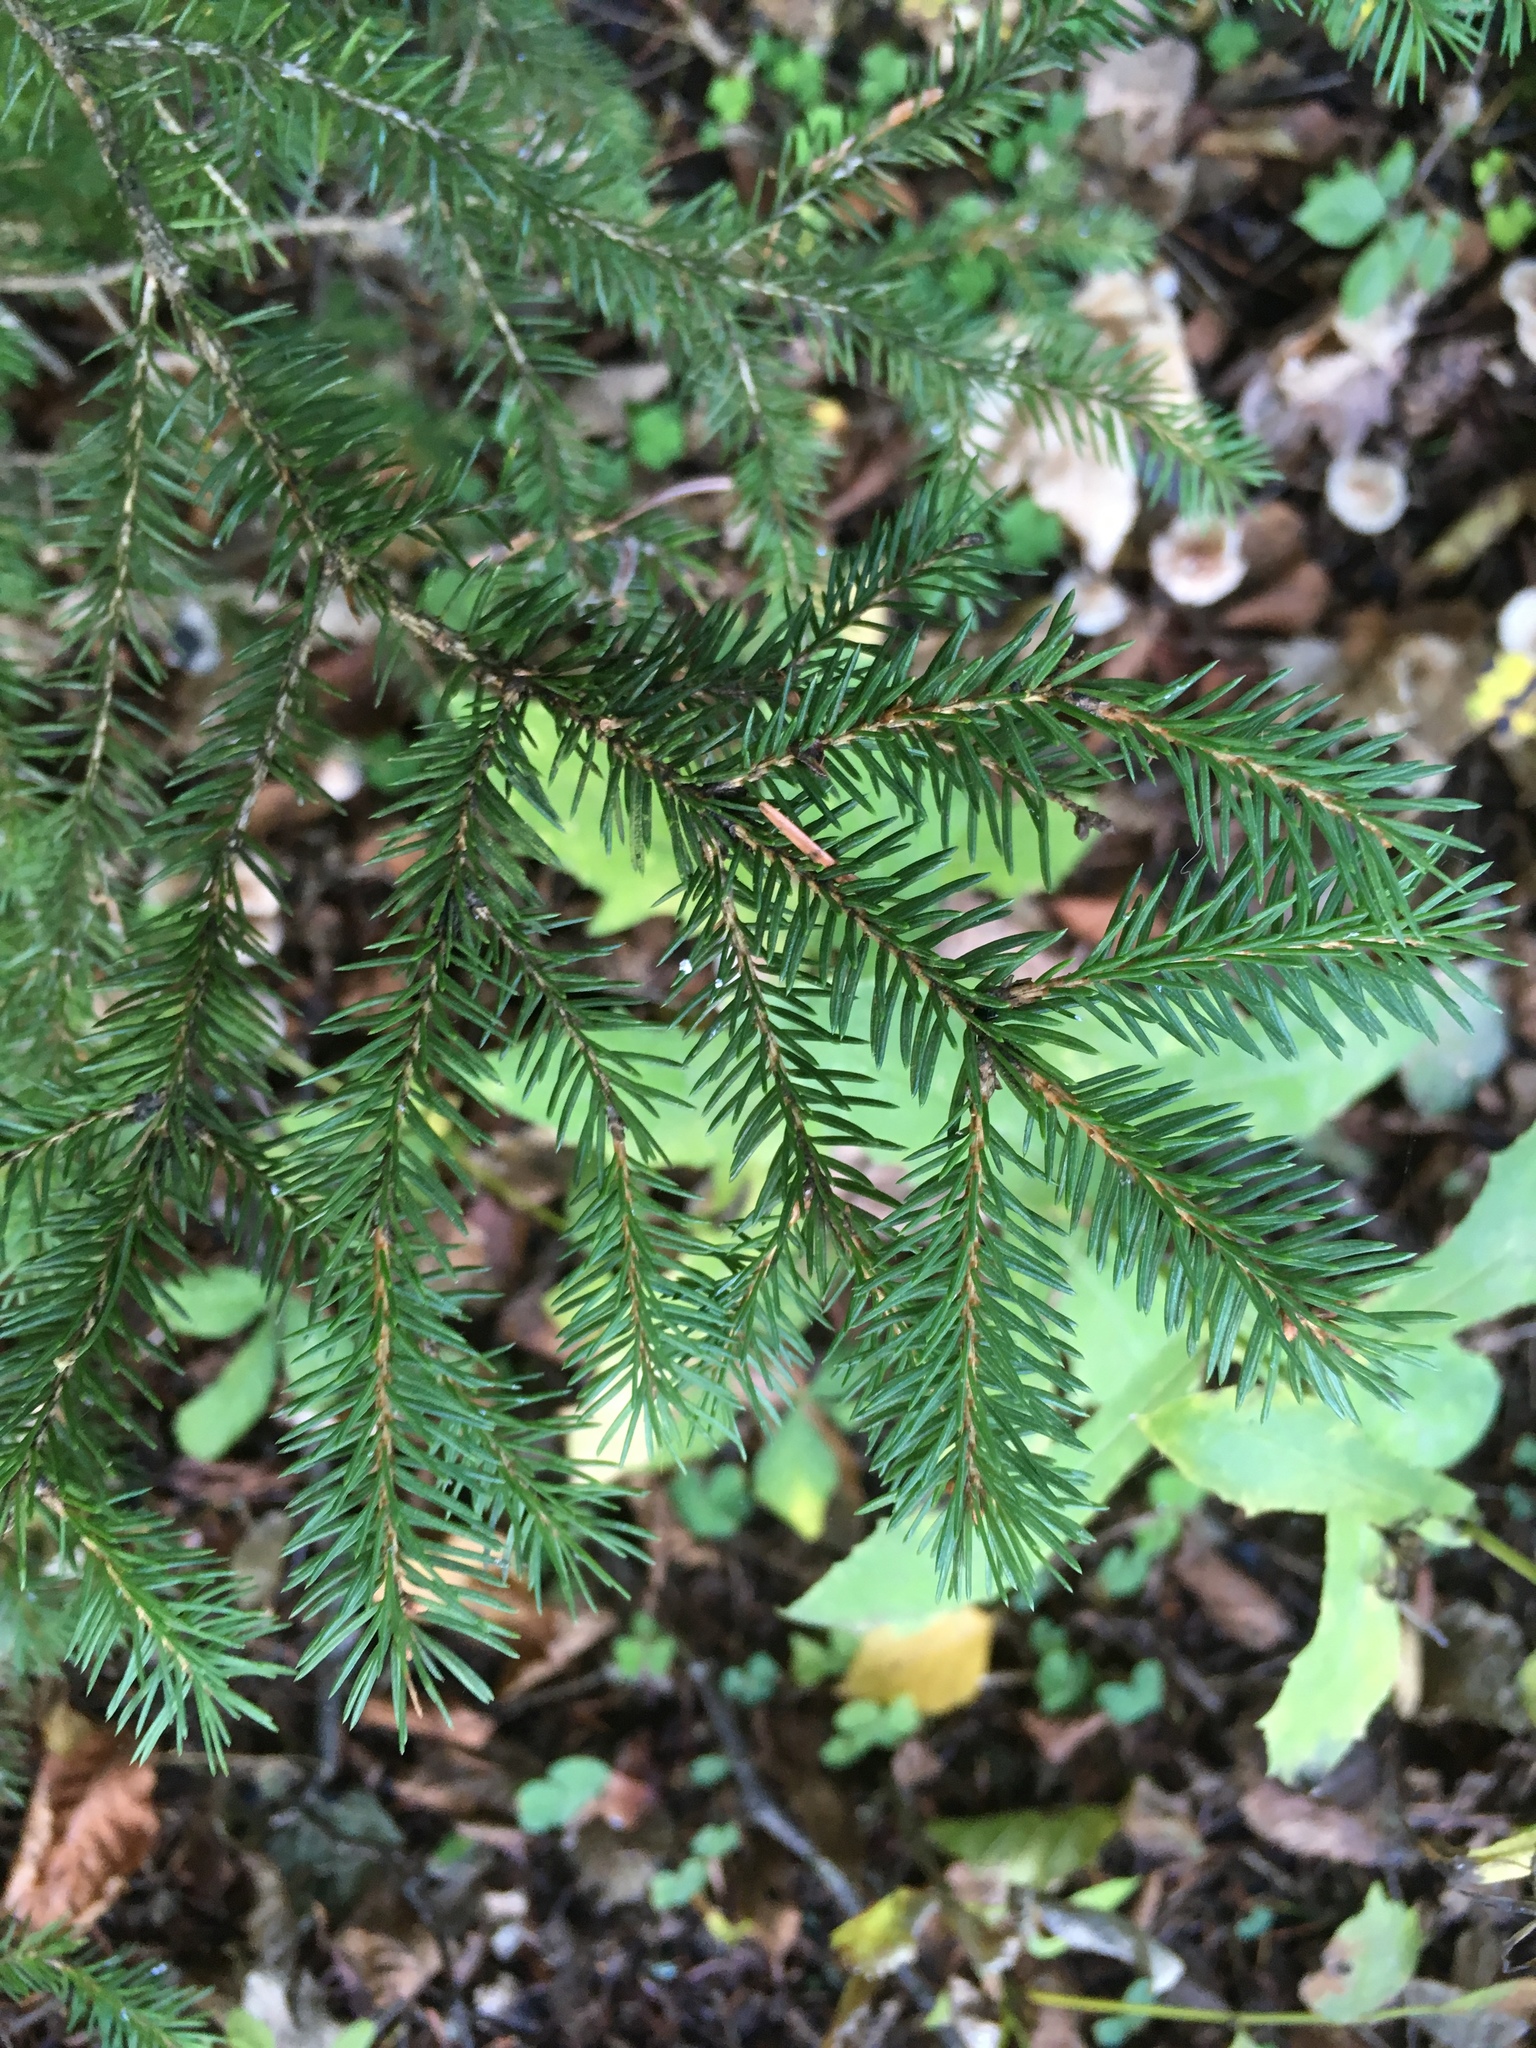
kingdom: Plantae
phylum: Tracheophyta
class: Pinopsida
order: Pinales
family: Pinaceae
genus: Picea
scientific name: Picea abies
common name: Norway spruce
